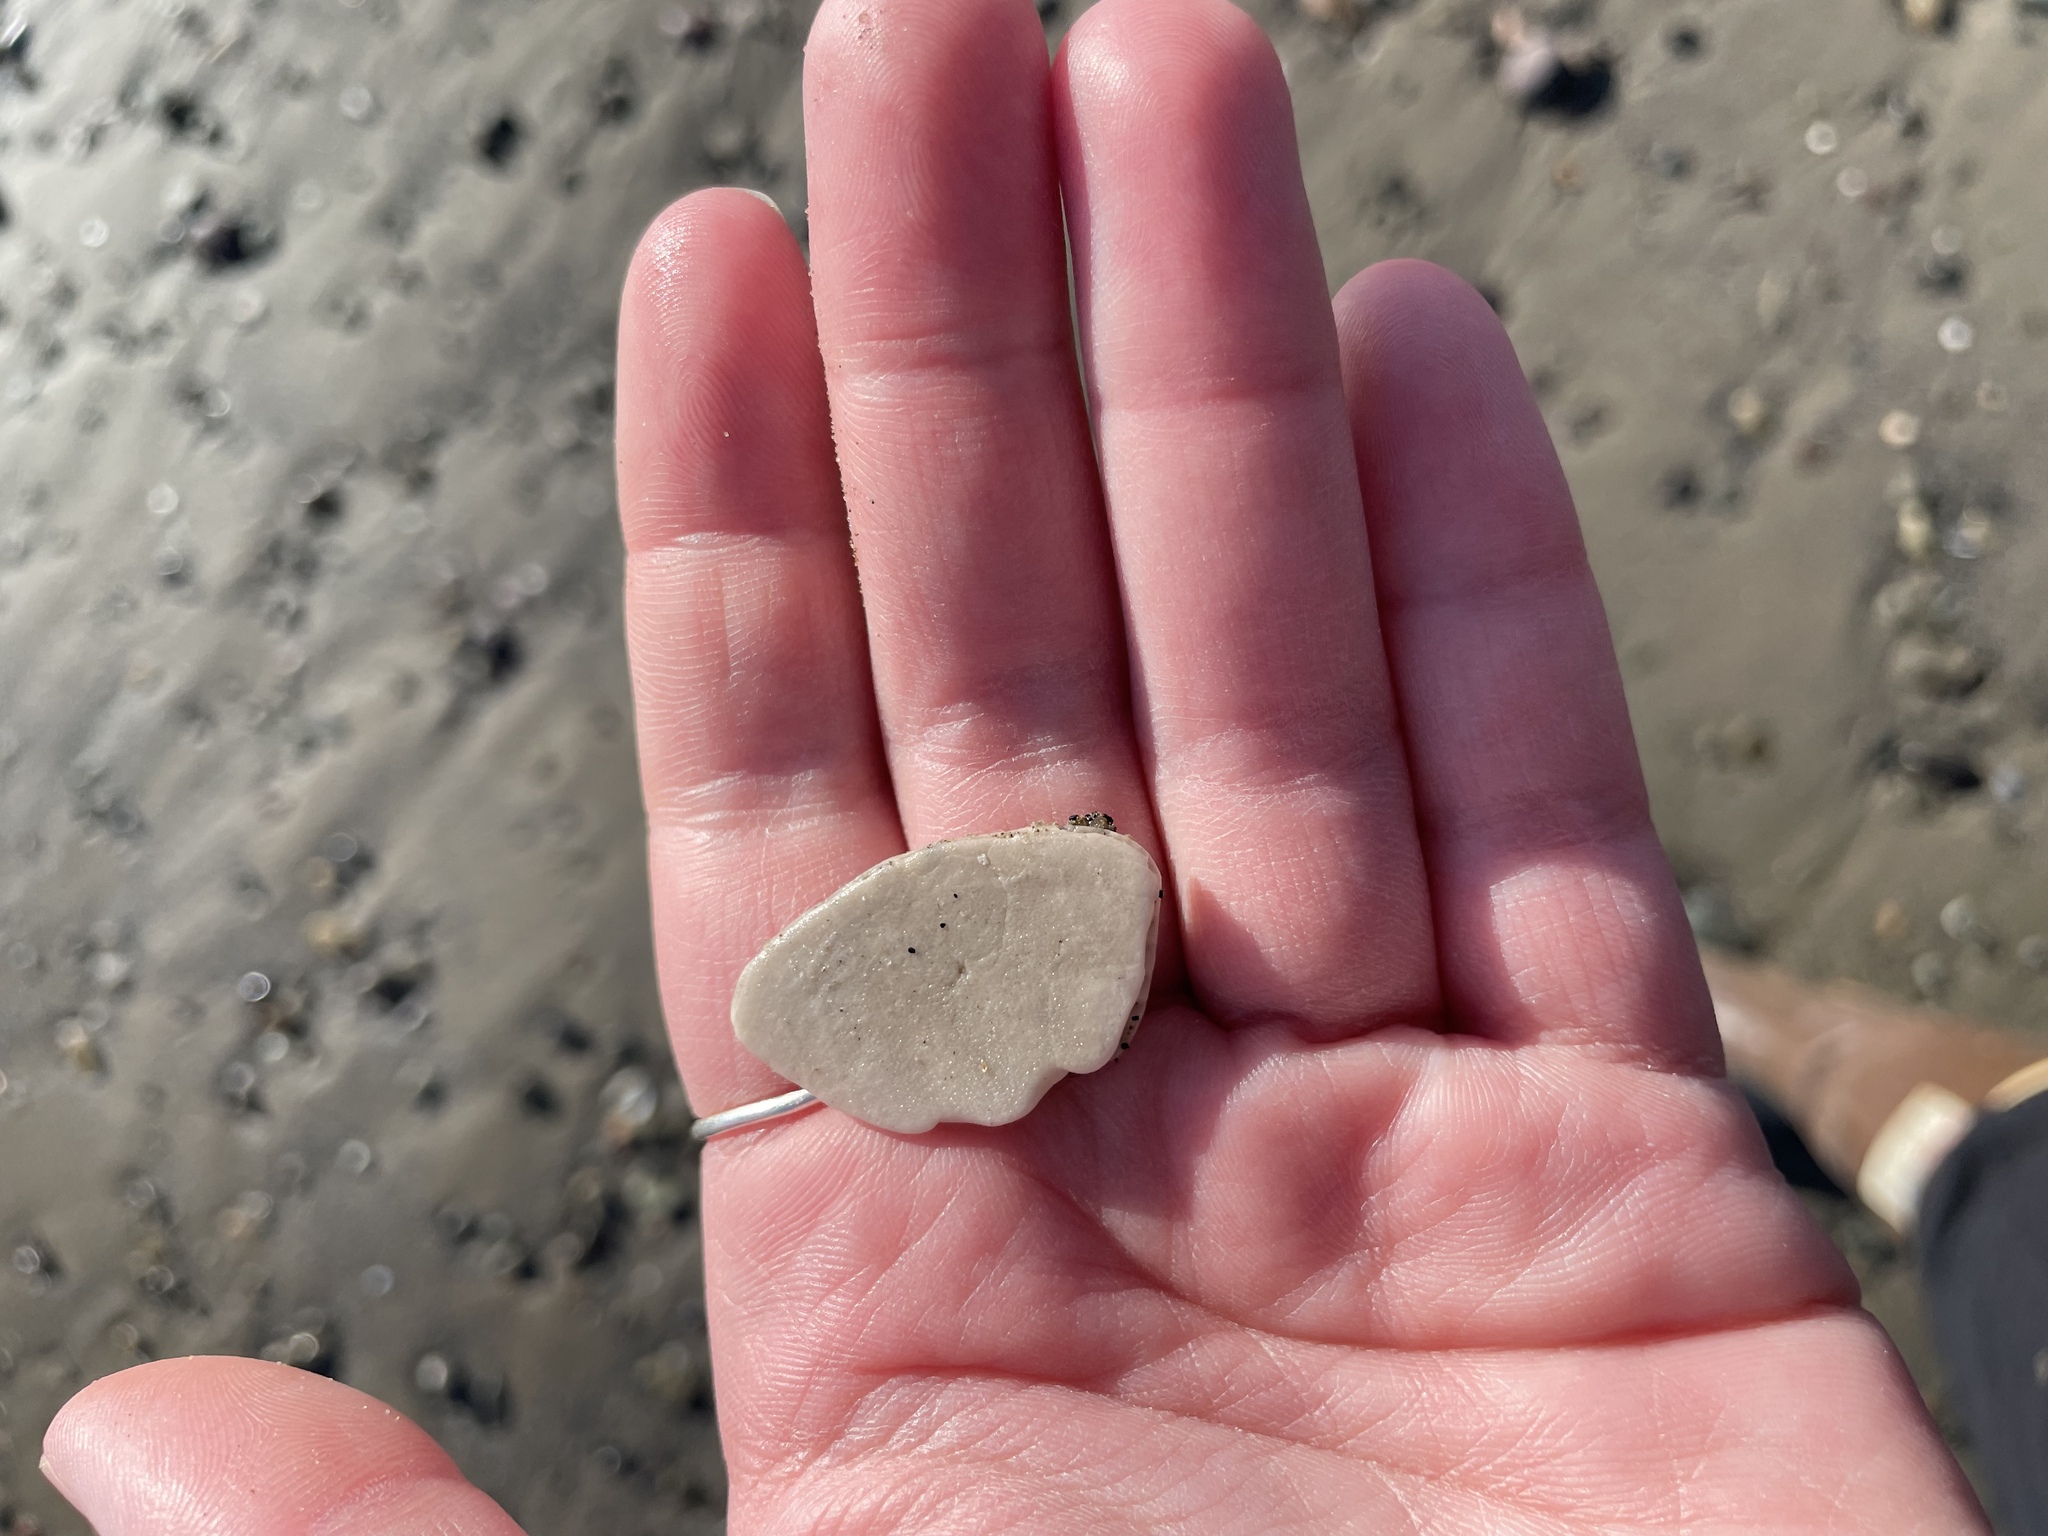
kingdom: Animalia
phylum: Echinodermata
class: Echinoidea
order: Echinolampadacea
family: Echinarachniidae
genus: Echinarachnius
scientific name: Echinarachnius parma
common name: Common sand dollar
